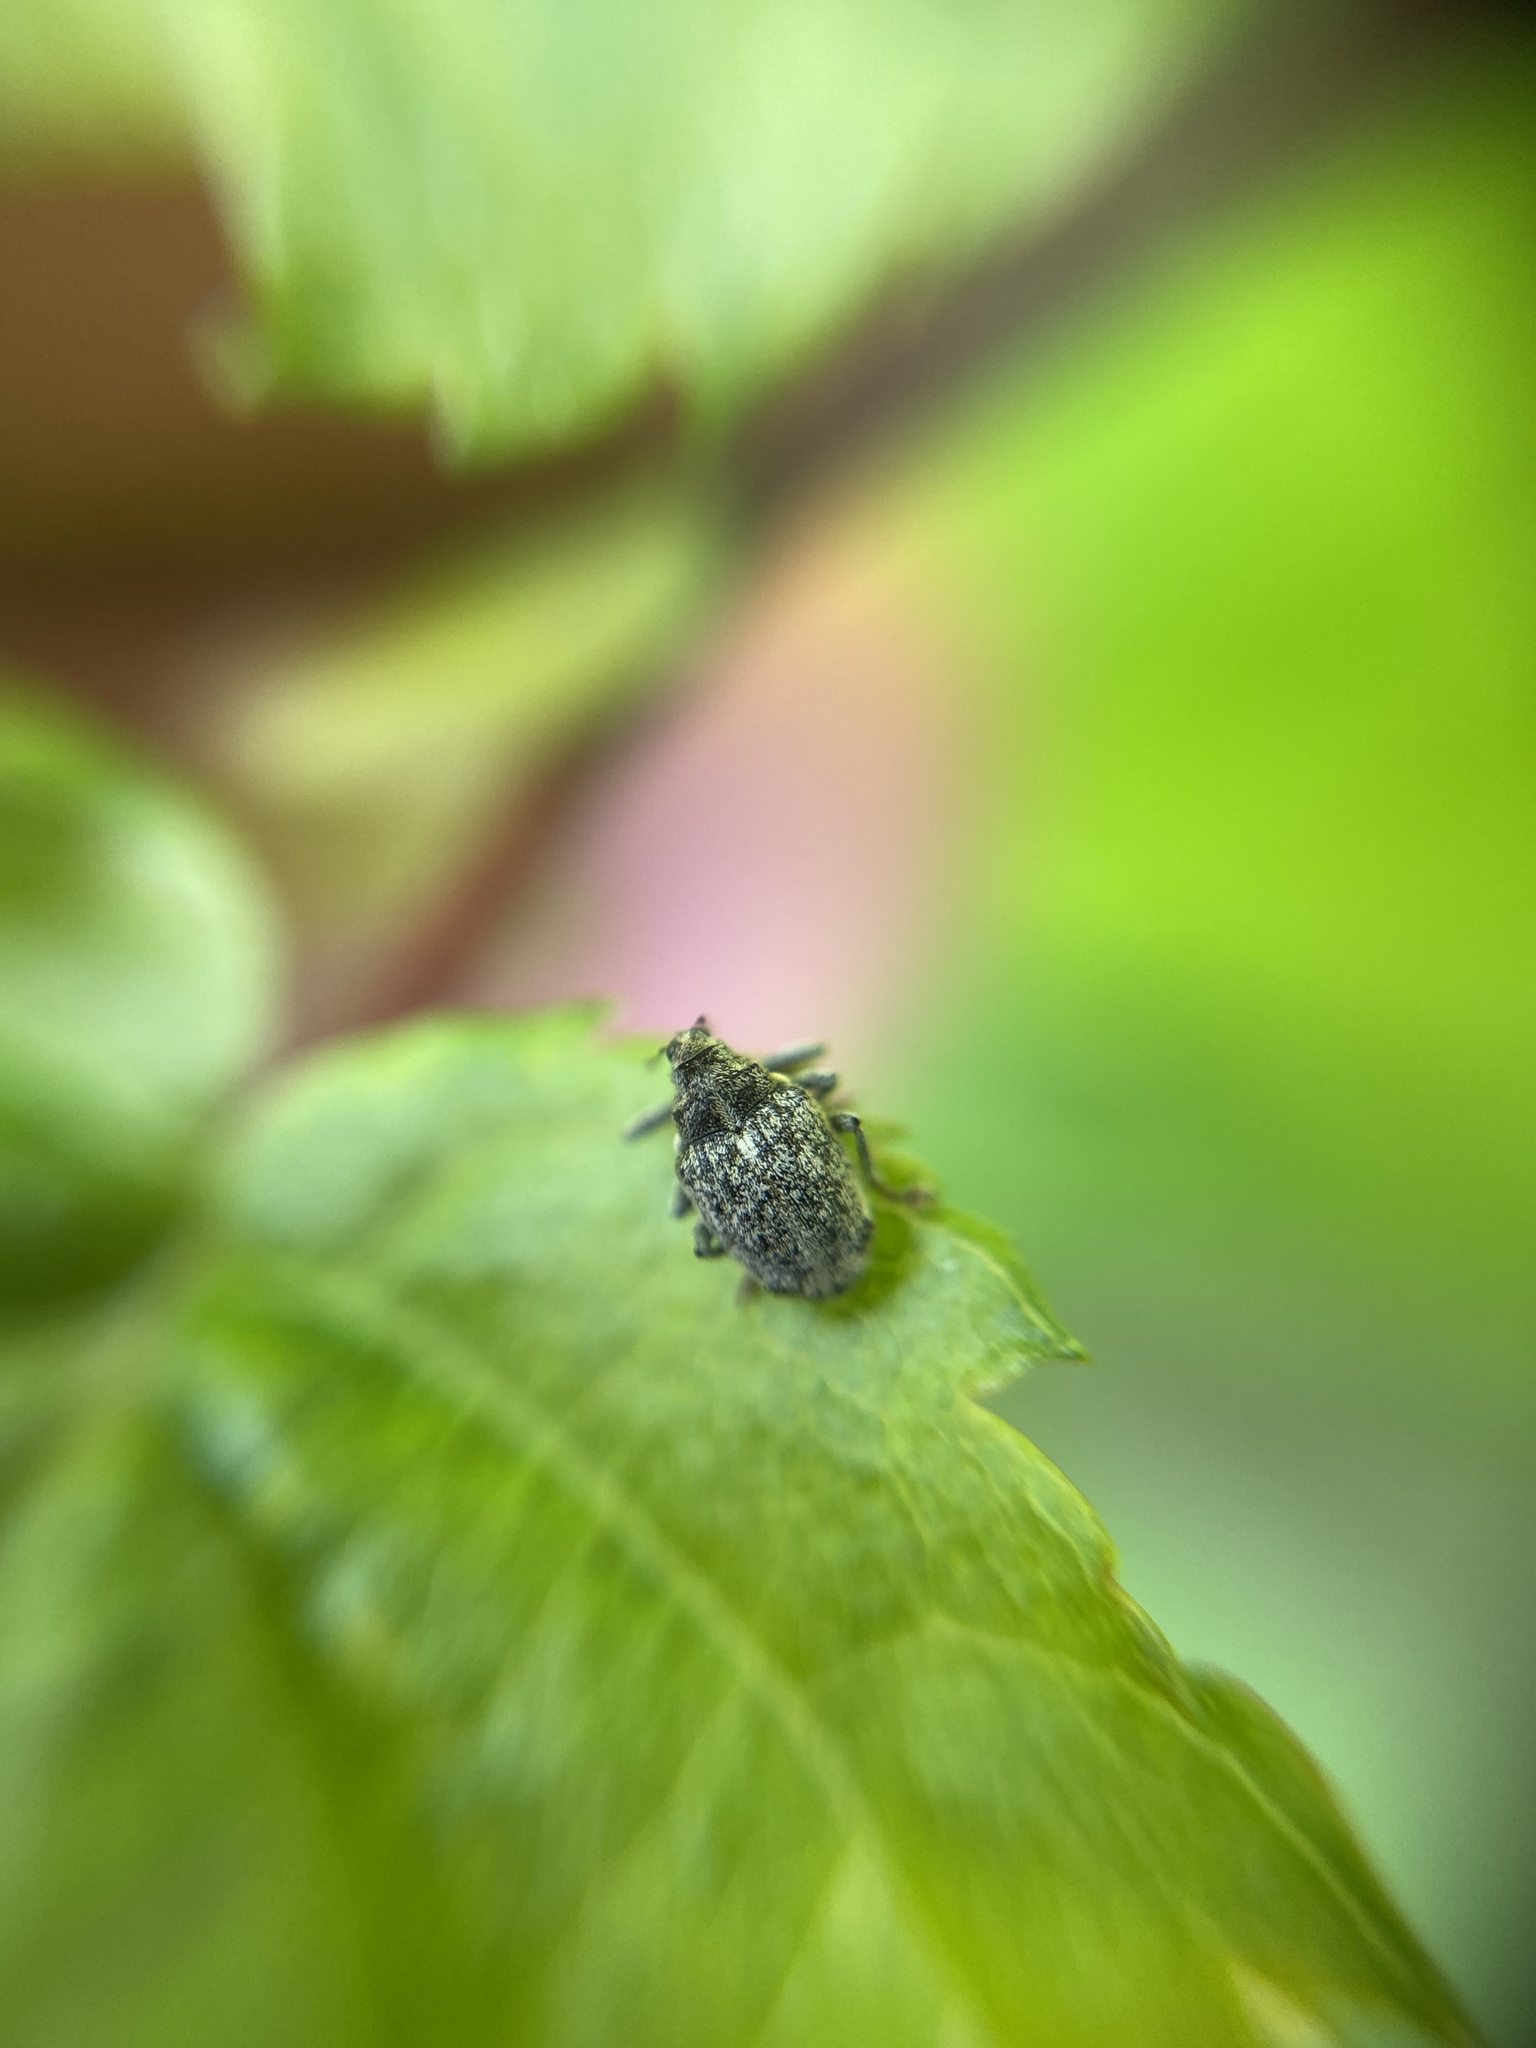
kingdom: Animalia
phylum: Arthropoda
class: Insecta
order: Coleoptera
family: Curculionidae
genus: Ceutorhynchus
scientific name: Ceutorhynchus pallidactylus
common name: Cabbage stem weavil
